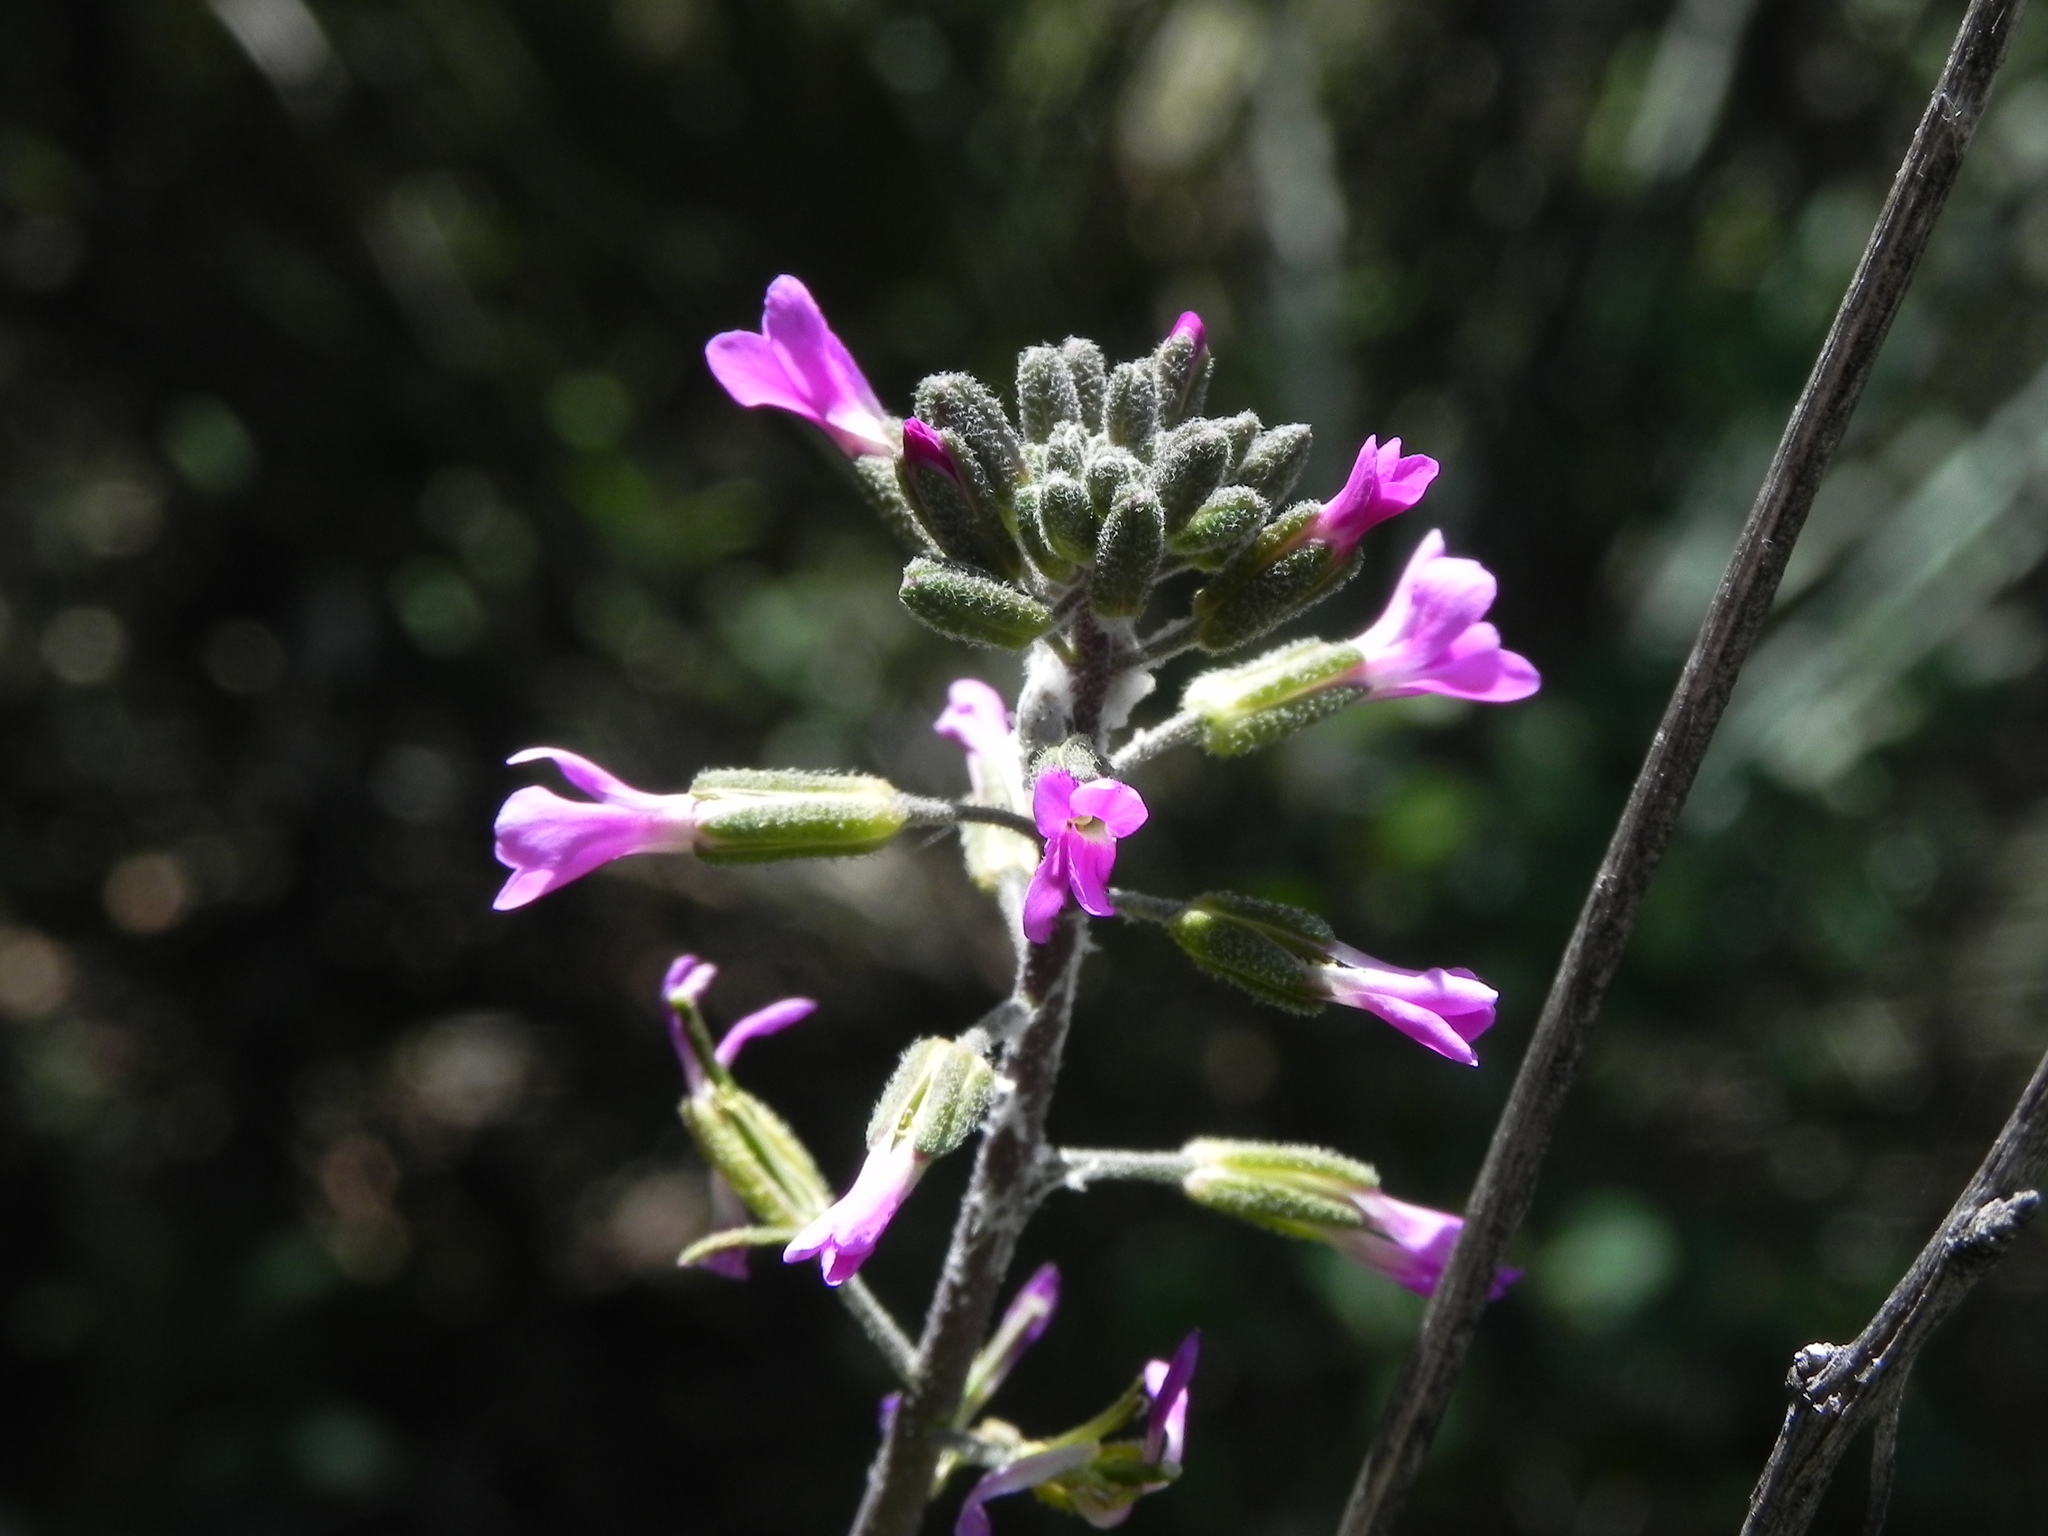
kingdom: Plantae
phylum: Tracheophyta
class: Magnoliopsida
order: Brassicales
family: Brassicaceae
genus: Boechera
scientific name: Boechera californica
